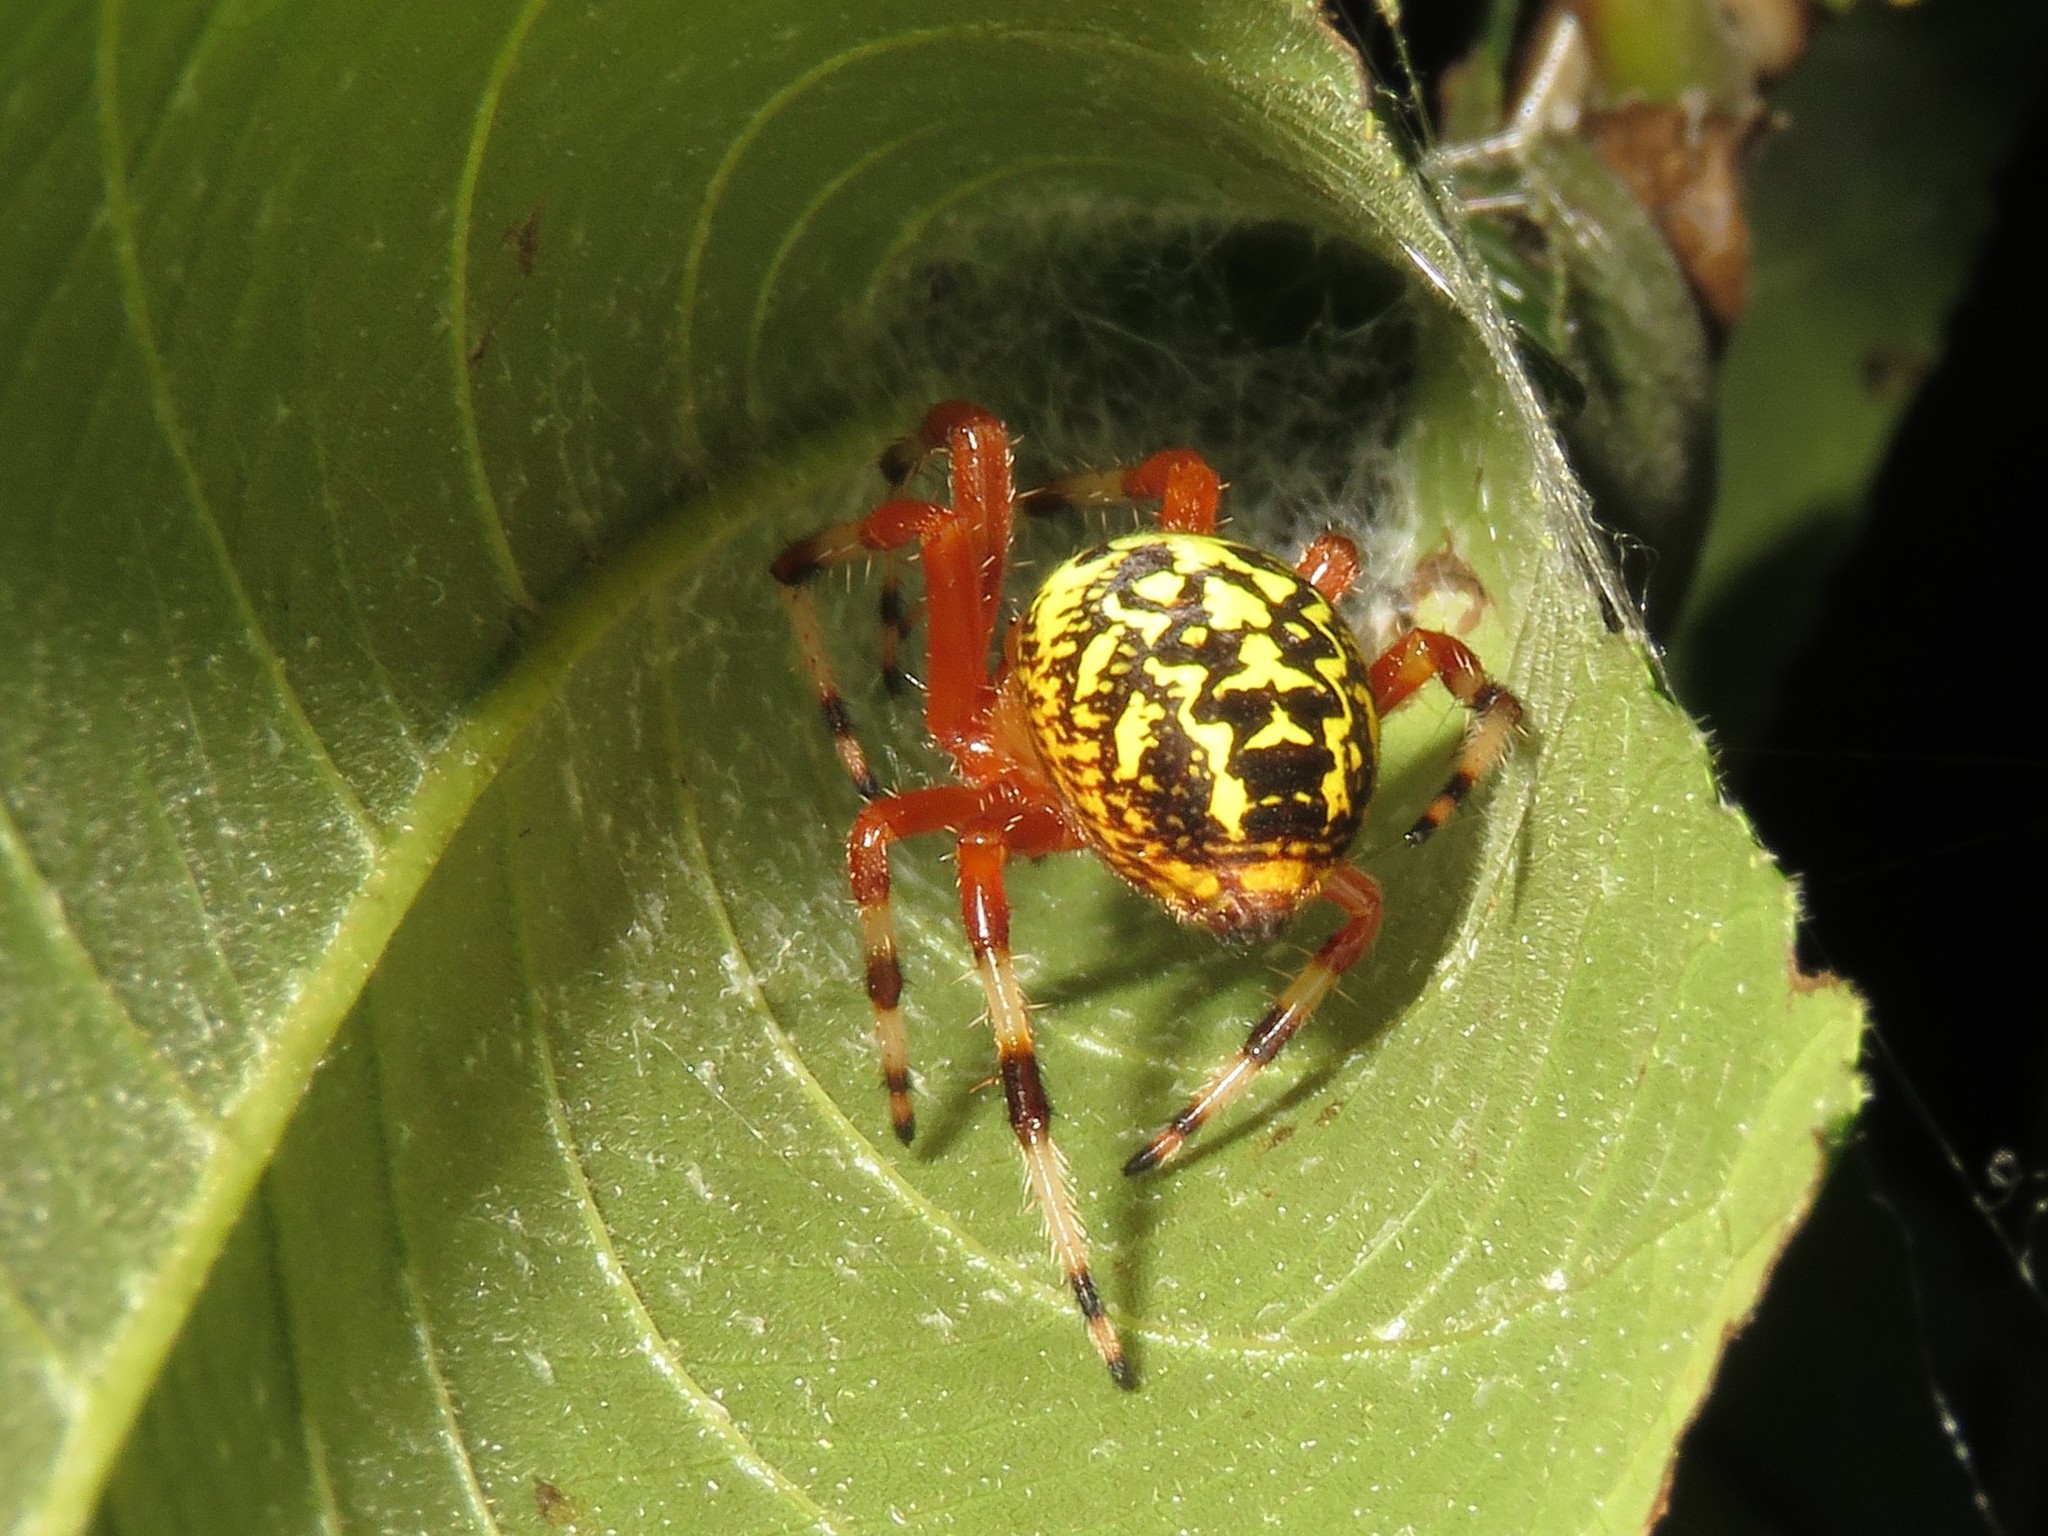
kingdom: Animalia
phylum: Arthropoda
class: Arachnida
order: Araneae
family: Araneidae
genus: Araneus
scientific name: Araneus marmoreus
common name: Marbled orbweaver
